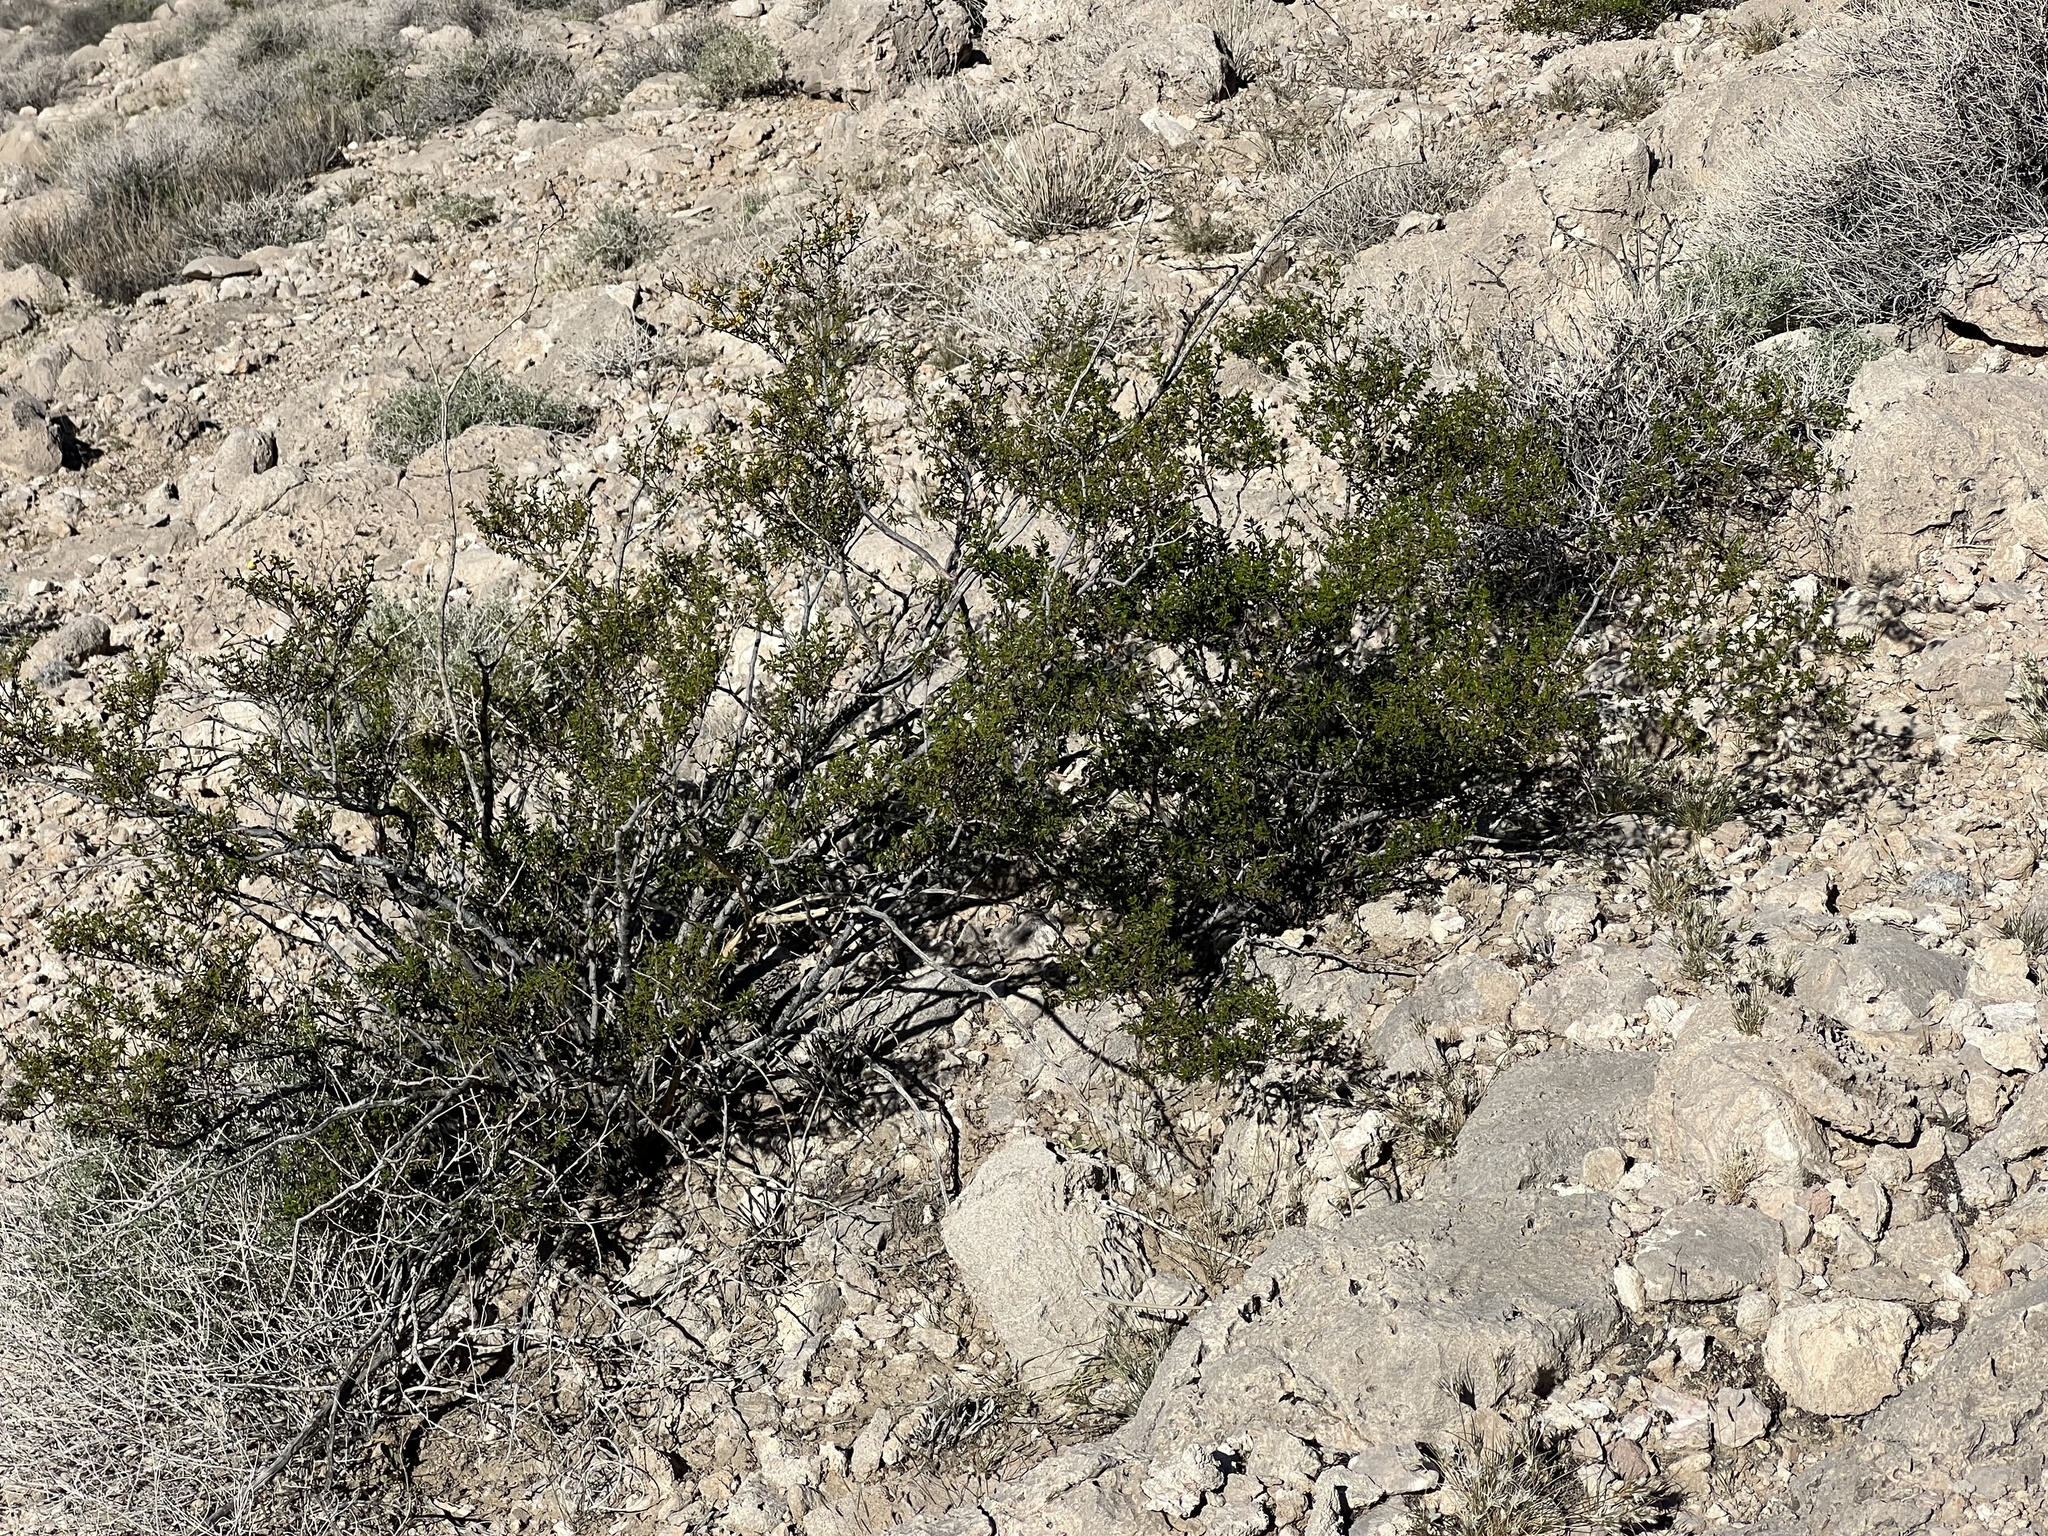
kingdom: Plantae
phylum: Tracheophyta
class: Magnoliopsida
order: Zygophyllales
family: Zygophyllaceae
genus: Larrea
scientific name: Larrea tridentata
